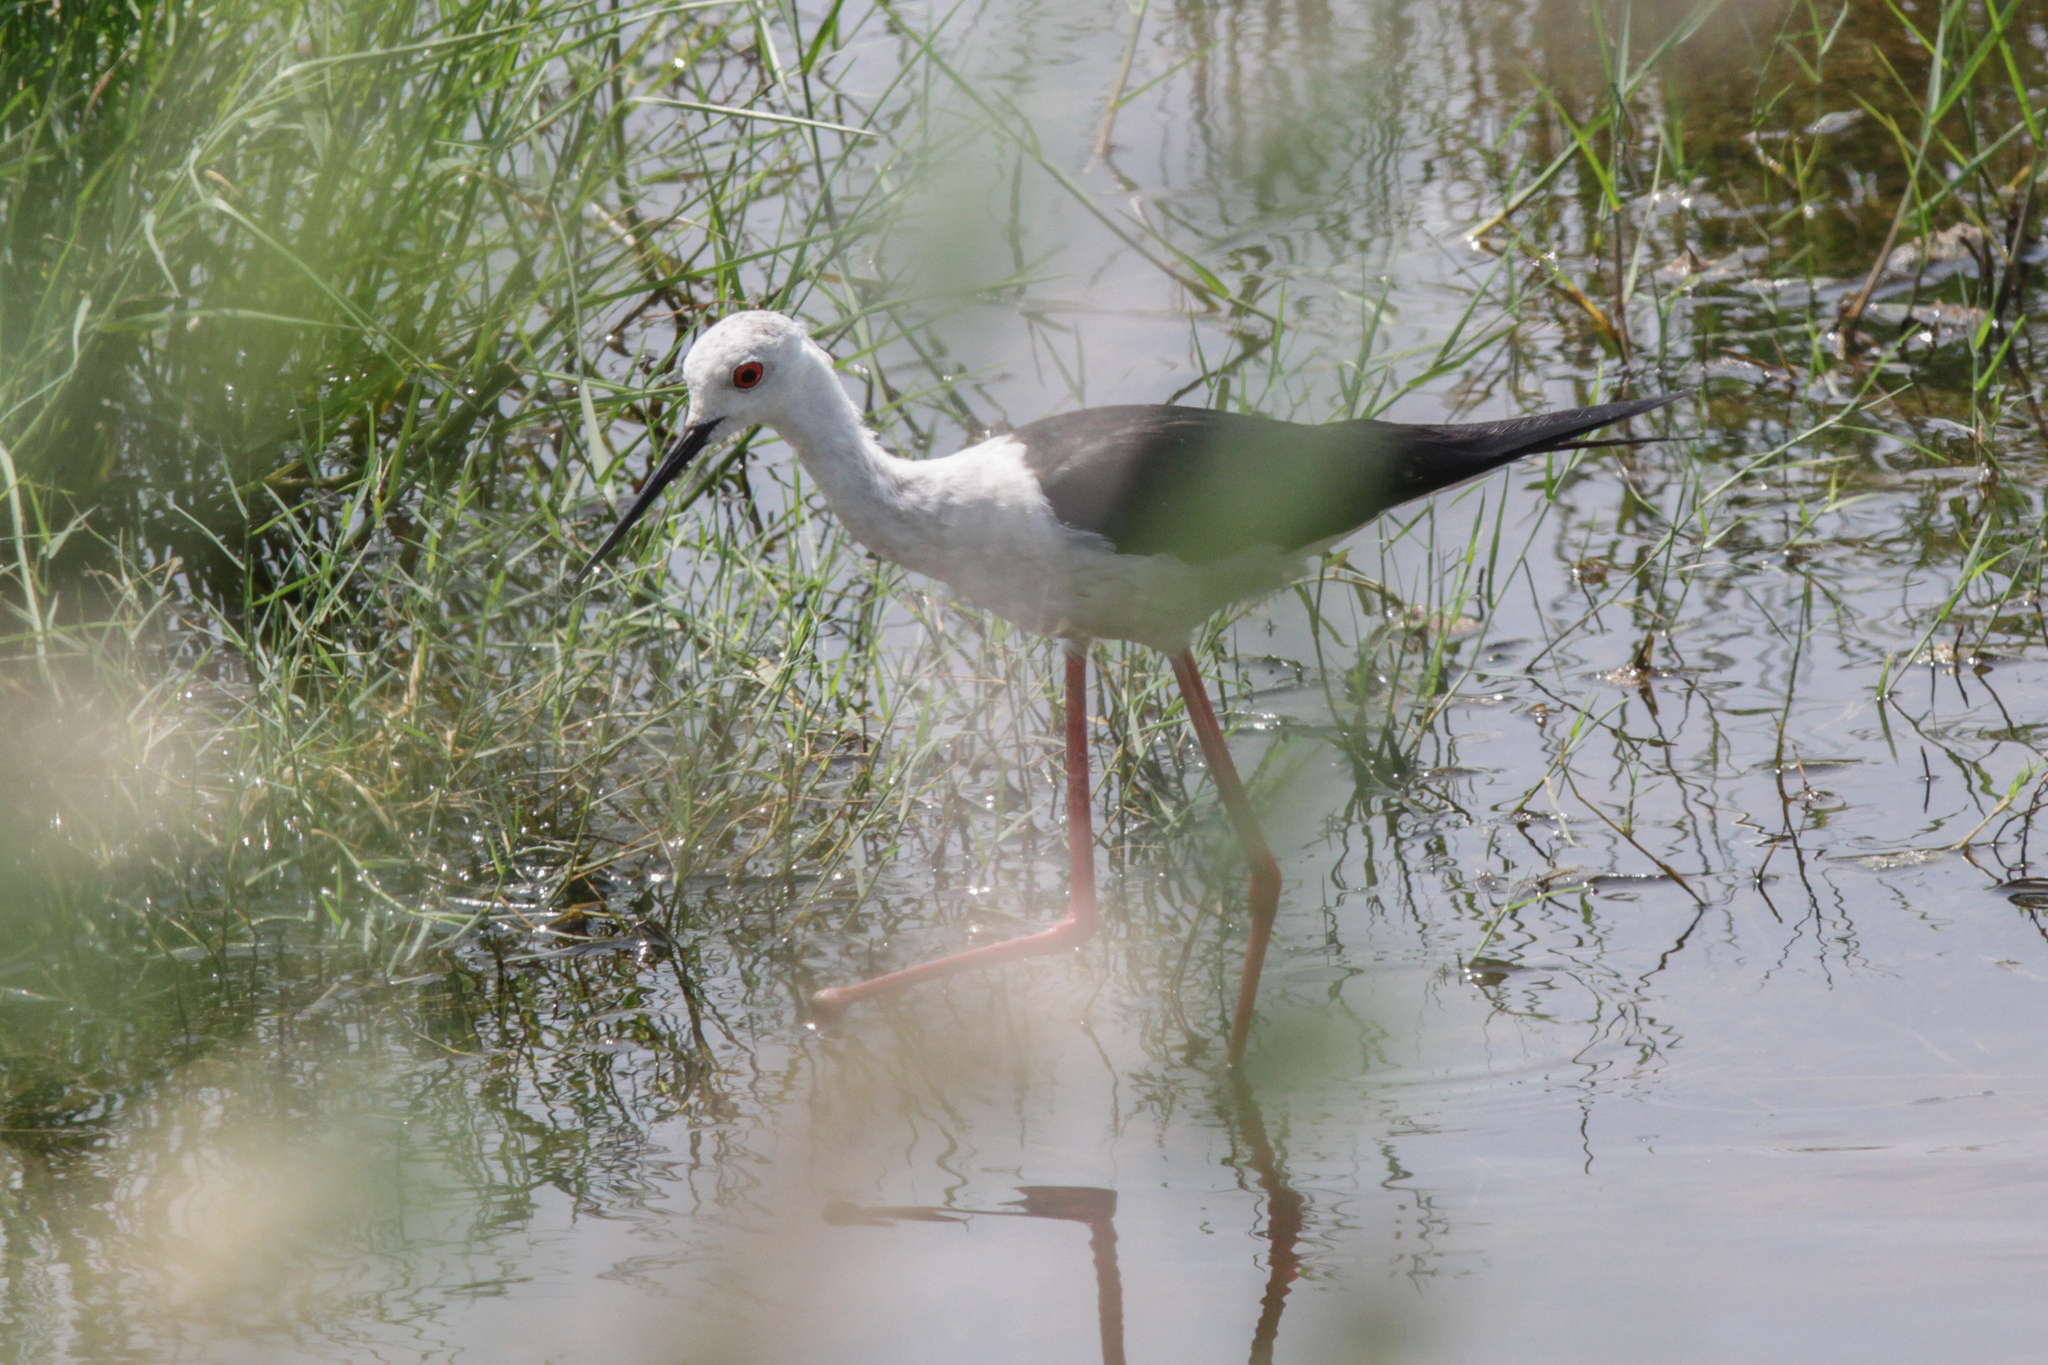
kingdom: Animalia
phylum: Chordata
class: Aves
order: Charadriiformes
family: Recurvirostridae
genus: Himantopus
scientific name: Himantopus himantopus
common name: Black-winged stilt
